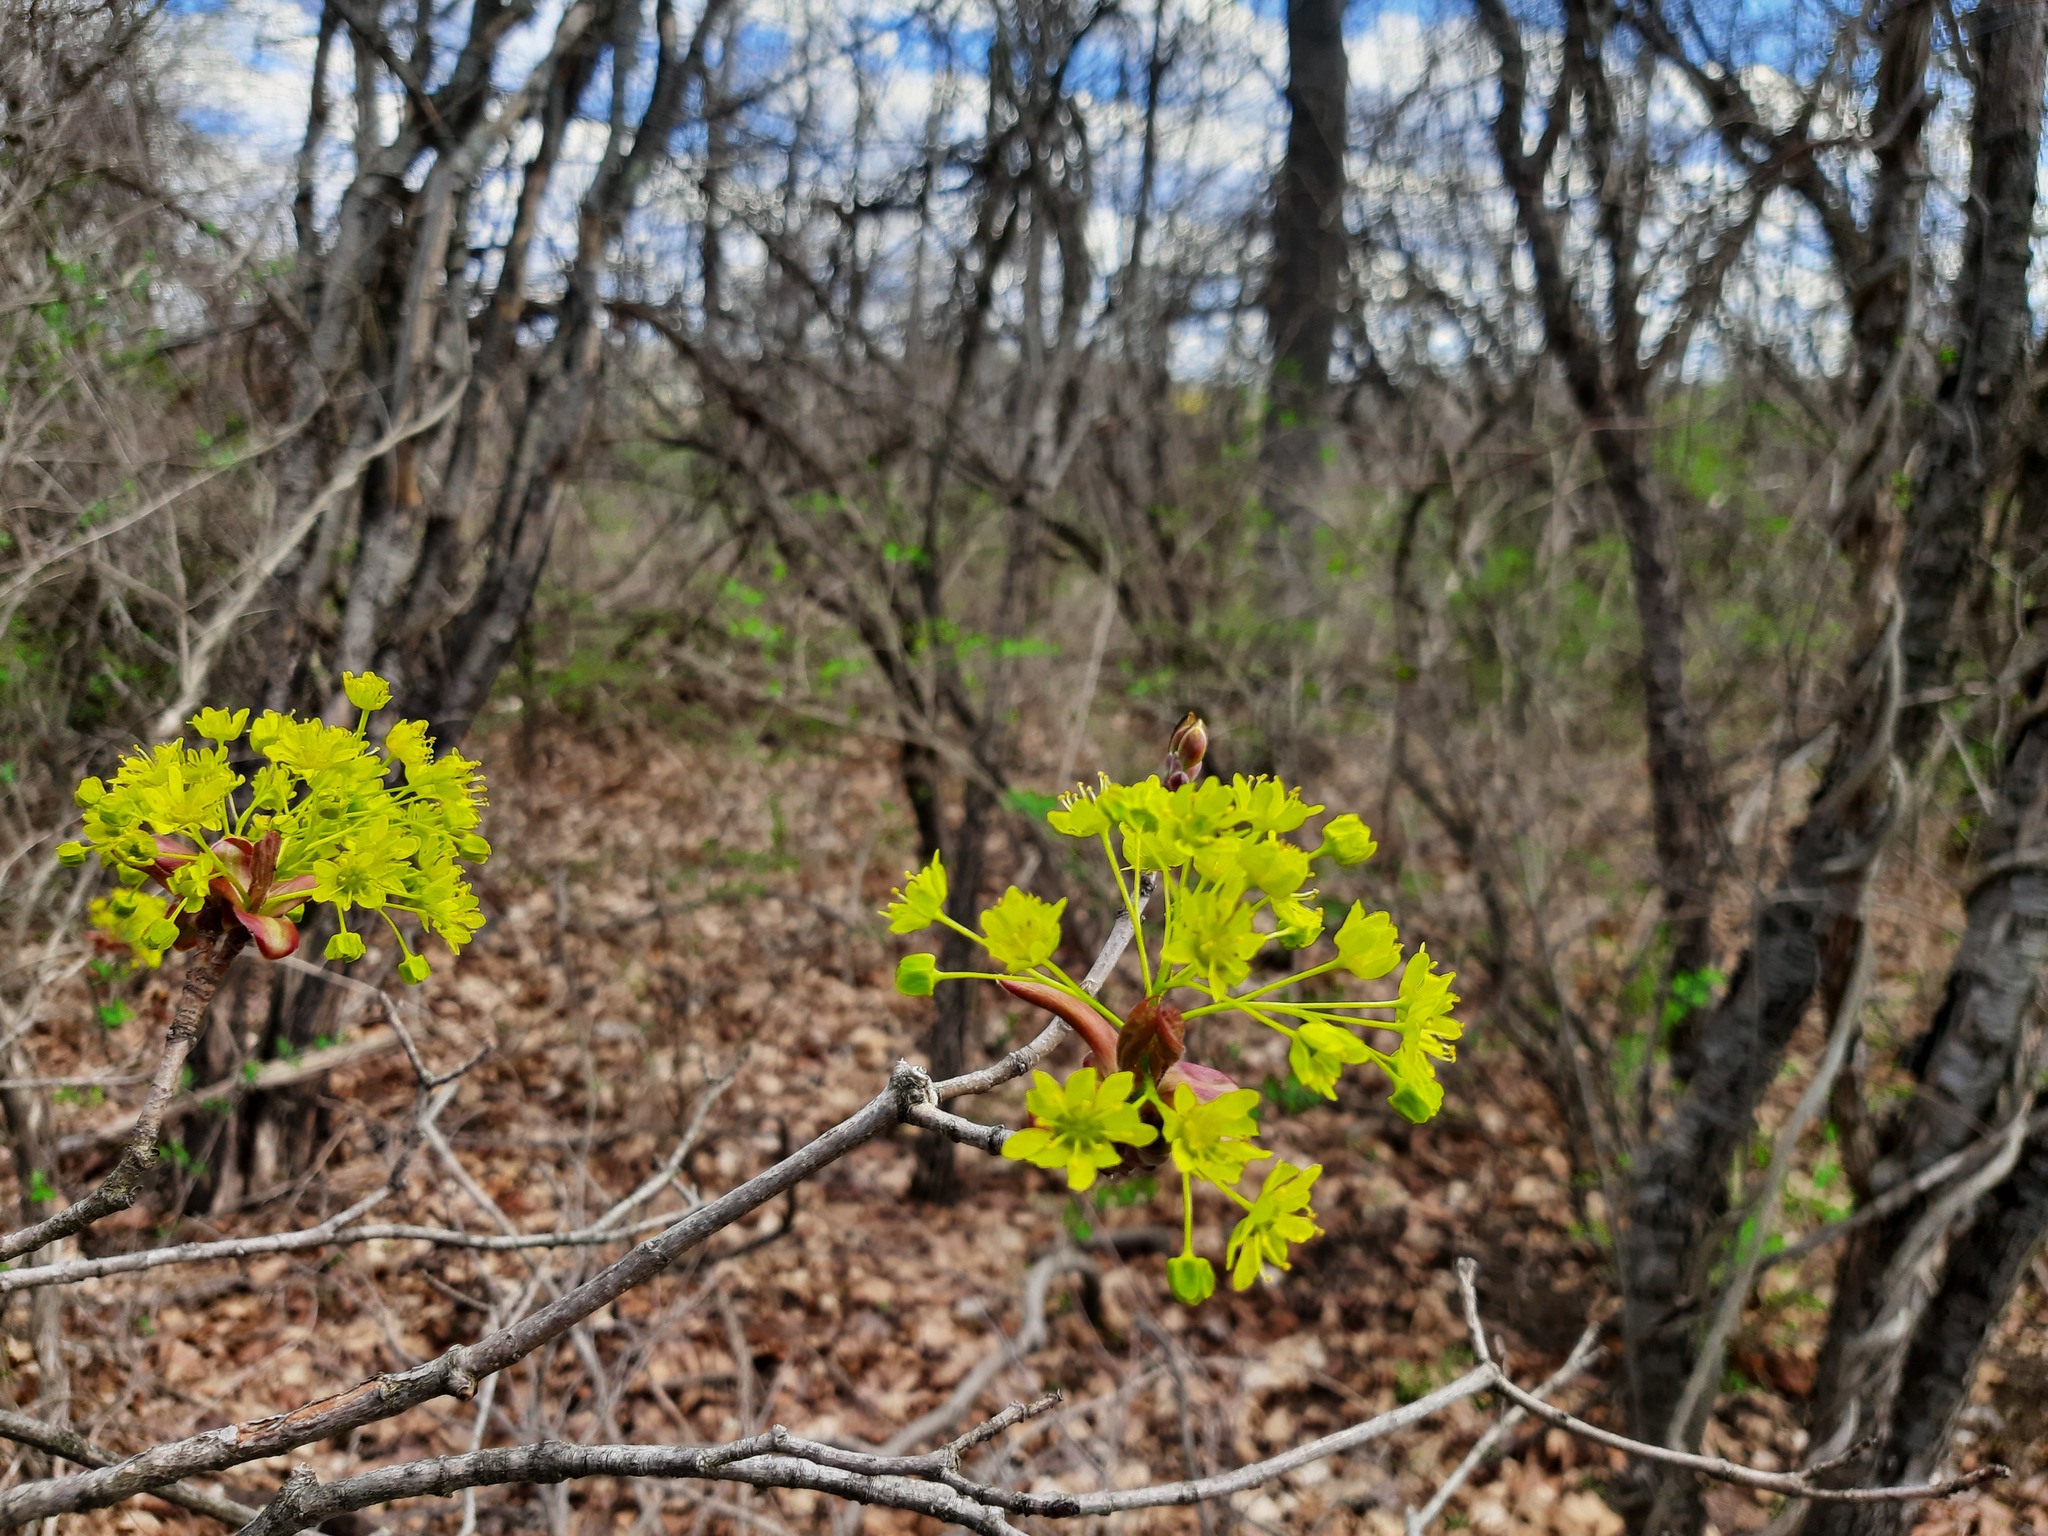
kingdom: Plantae
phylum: Tracheophyta
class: Magnoliopsida
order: Sapindales
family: Sapindaceae
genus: Acer
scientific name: Acer platanoides
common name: Norway maple
